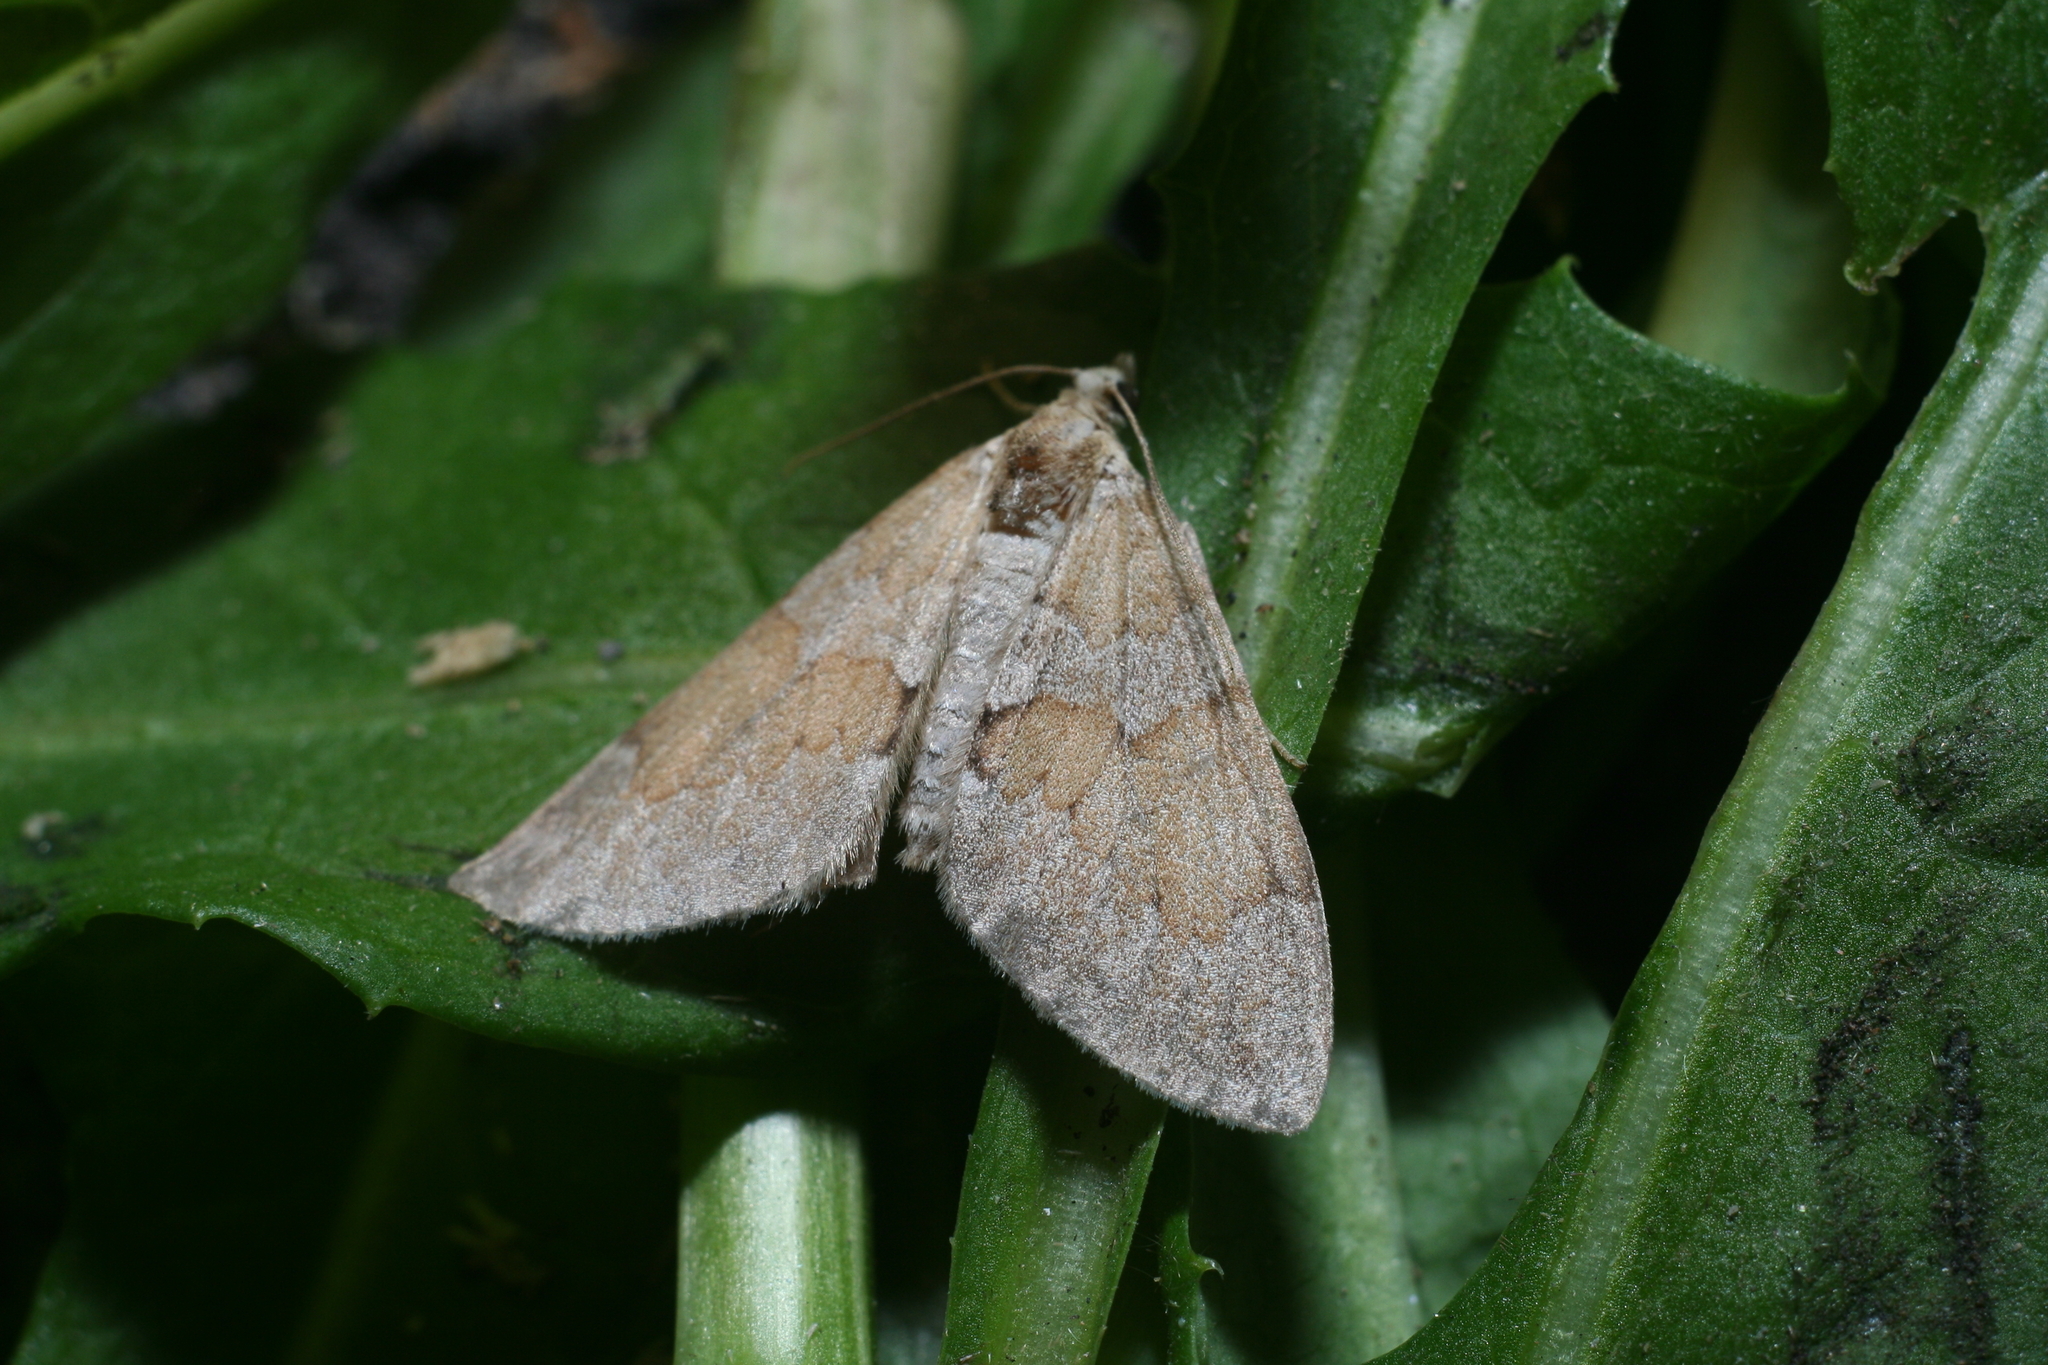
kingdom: Animalia
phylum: Arthropoda
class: Insecta
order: Lepidoptera
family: Geometridae
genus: Thera
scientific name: Thera obeliscata
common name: Grey pine carpet
